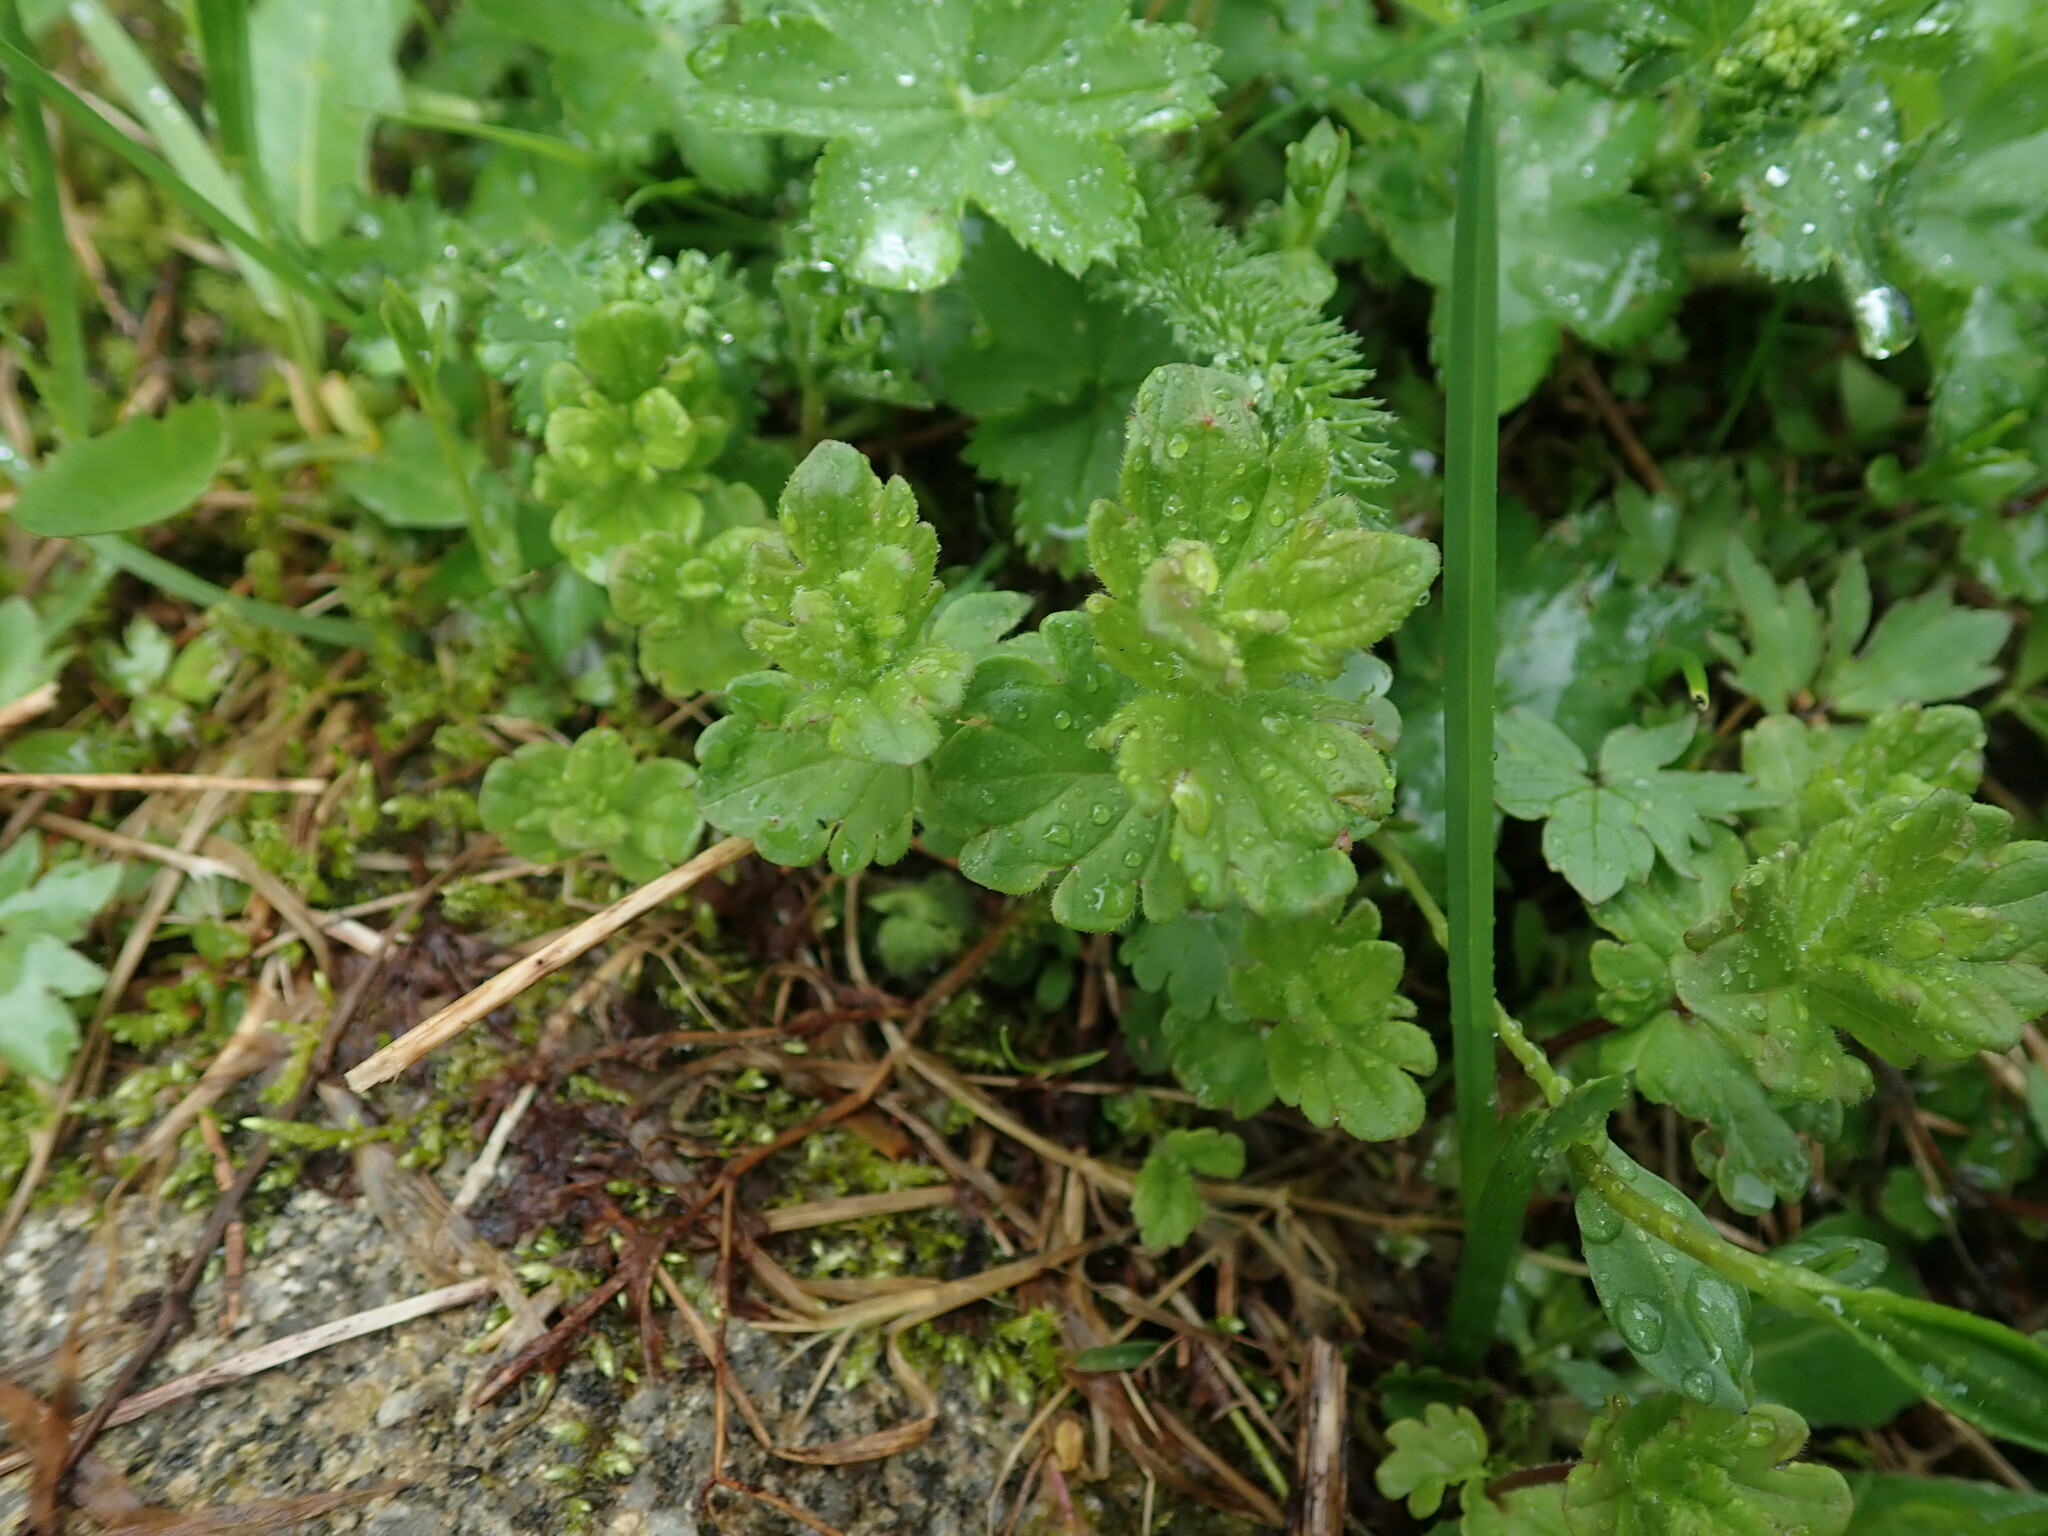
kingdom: Plantae
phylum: Tracheophyta
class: Magnoliopsida
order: Lamiales
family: Plantaginaceae
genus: Veronica
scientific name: Veronica chamaedrys
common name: Germander speedwell
